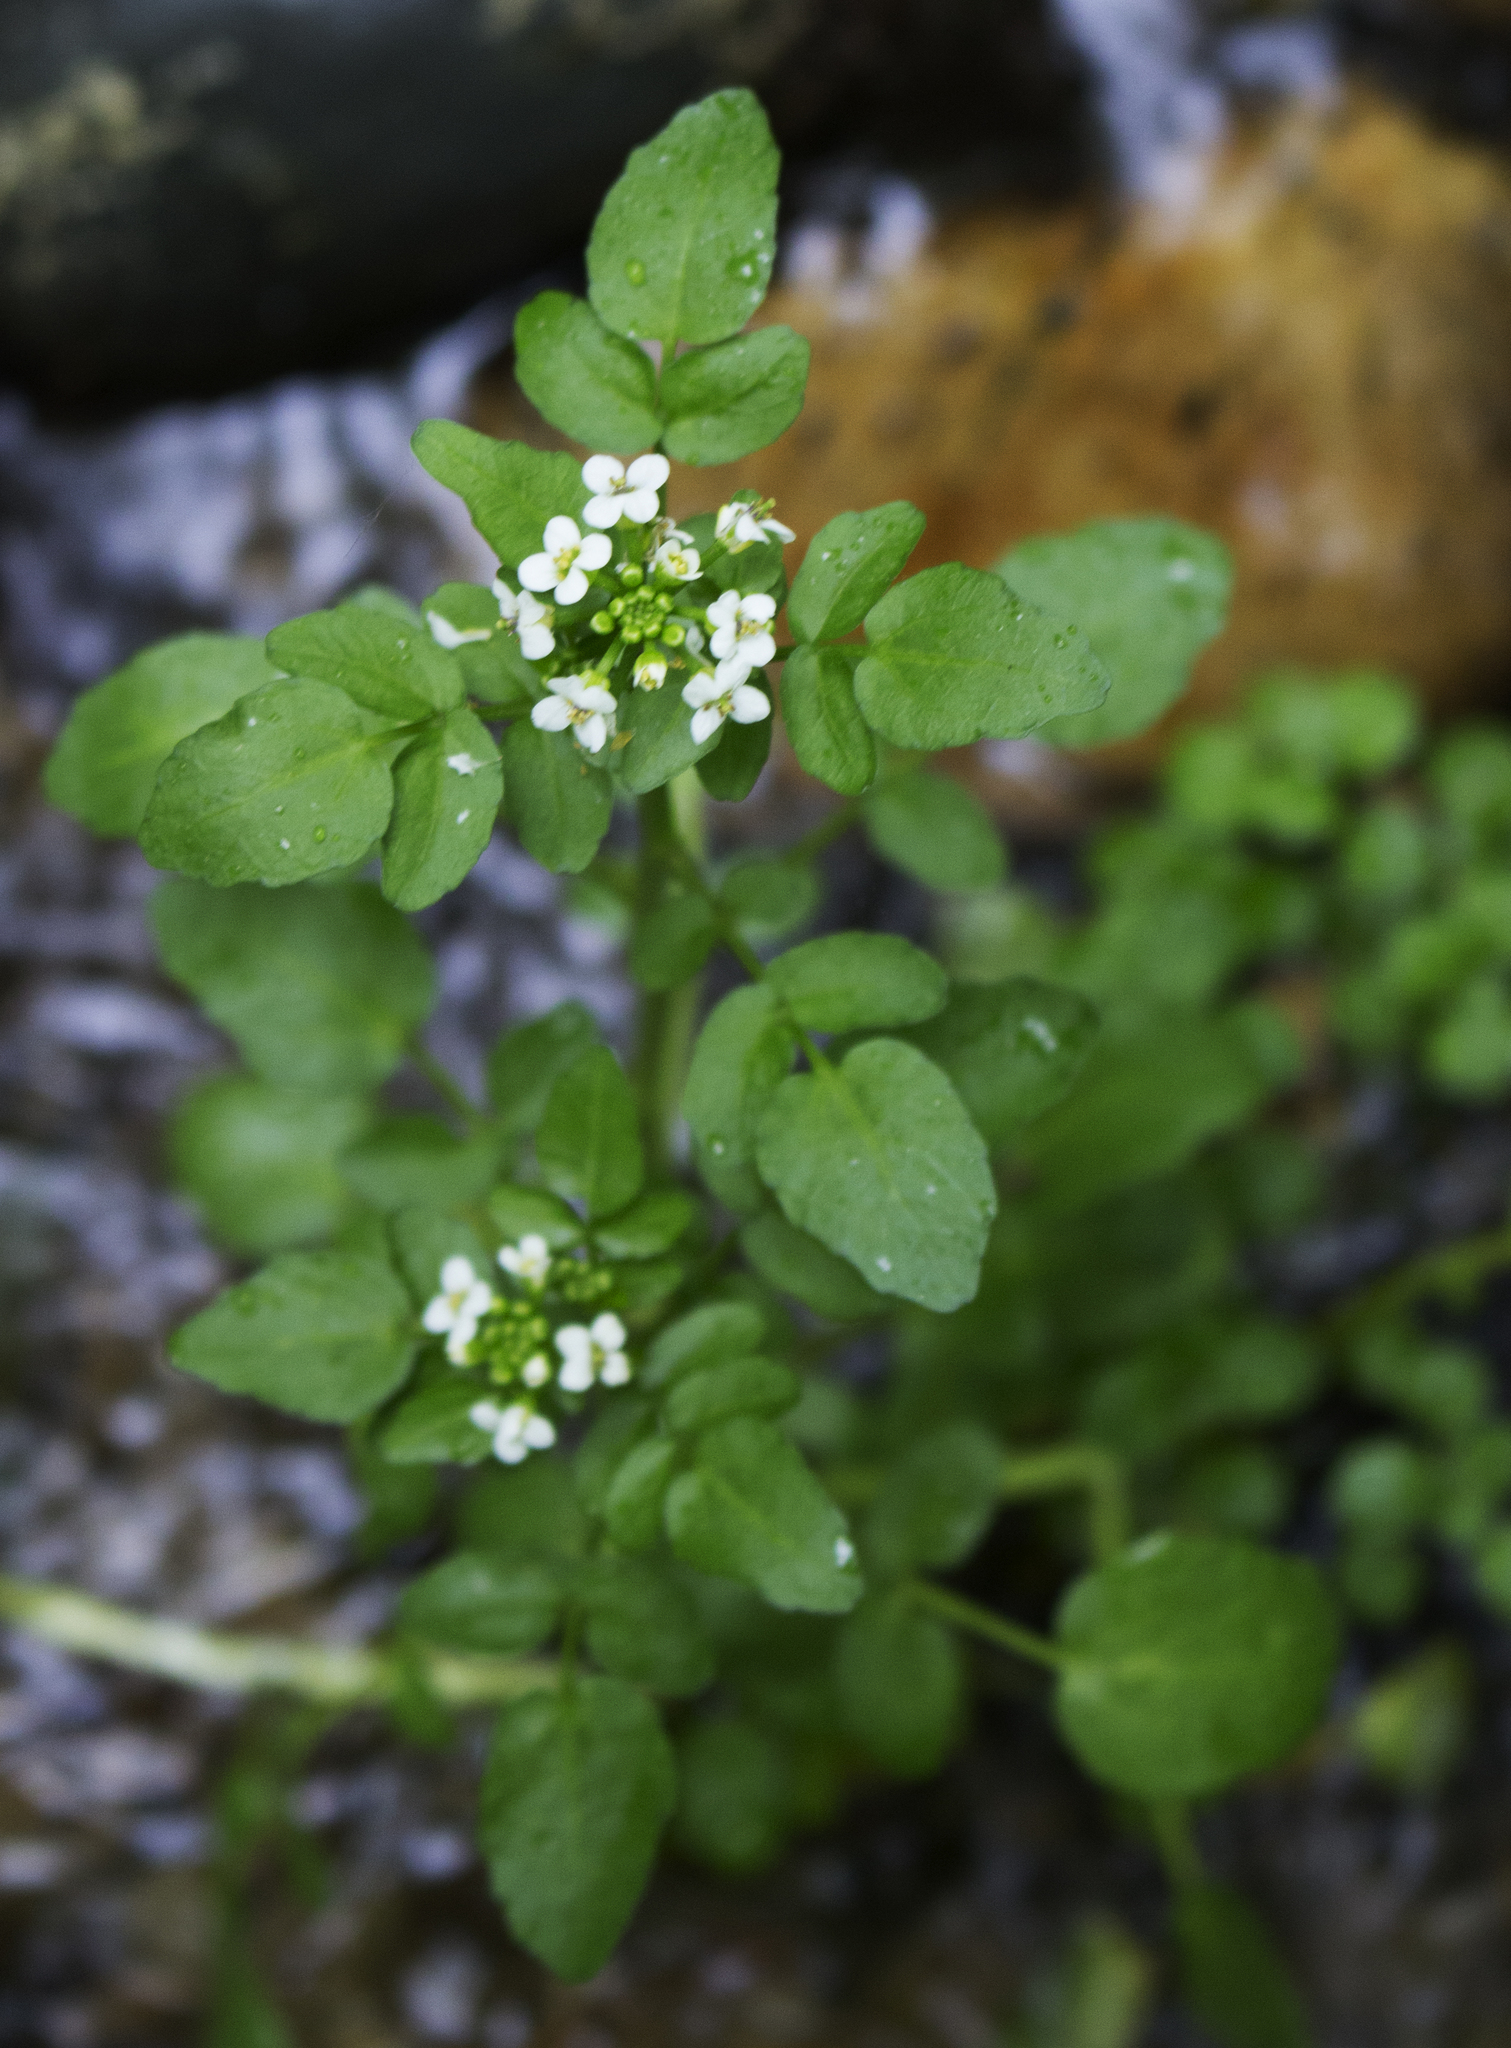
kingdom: Plantae
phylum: Tracheophyta
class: Magnoliopsida
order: Brassicales
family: Brassicaceae
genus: Nasturtium
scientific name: Nasturtium officinale
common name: Watercress
